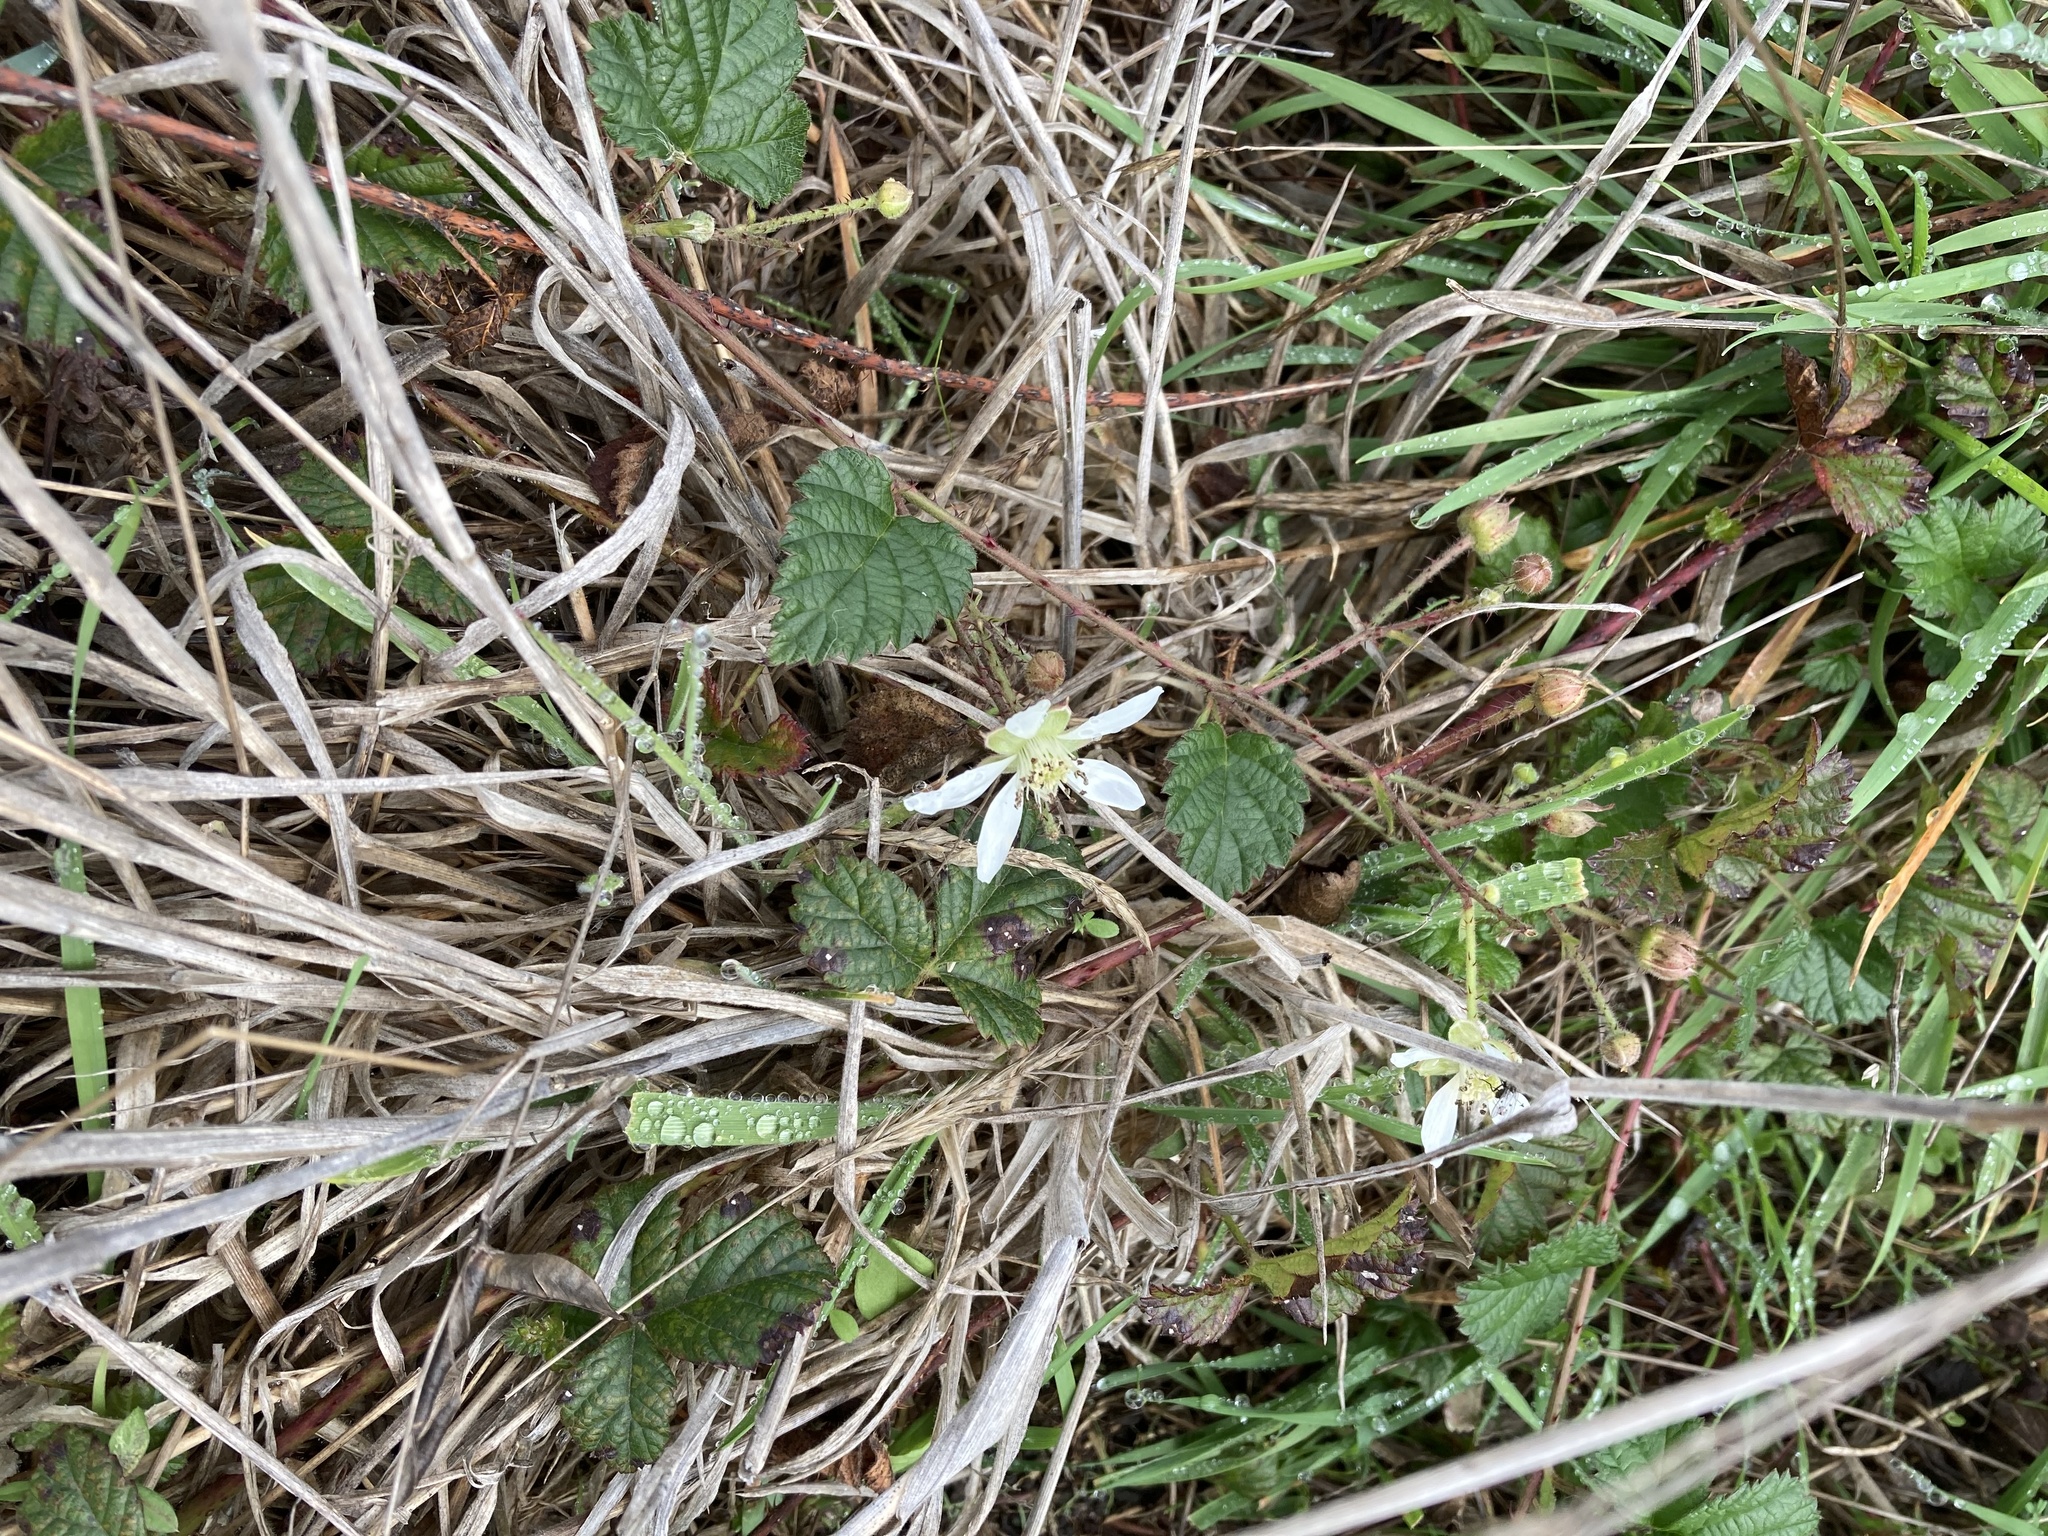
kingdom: Plantae
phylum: Tracheophyta
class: Magnoliopsida
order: Rosales
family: Rosaceae
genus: Rubus
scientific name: Rubus ursinus
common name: Pacific blackberry
